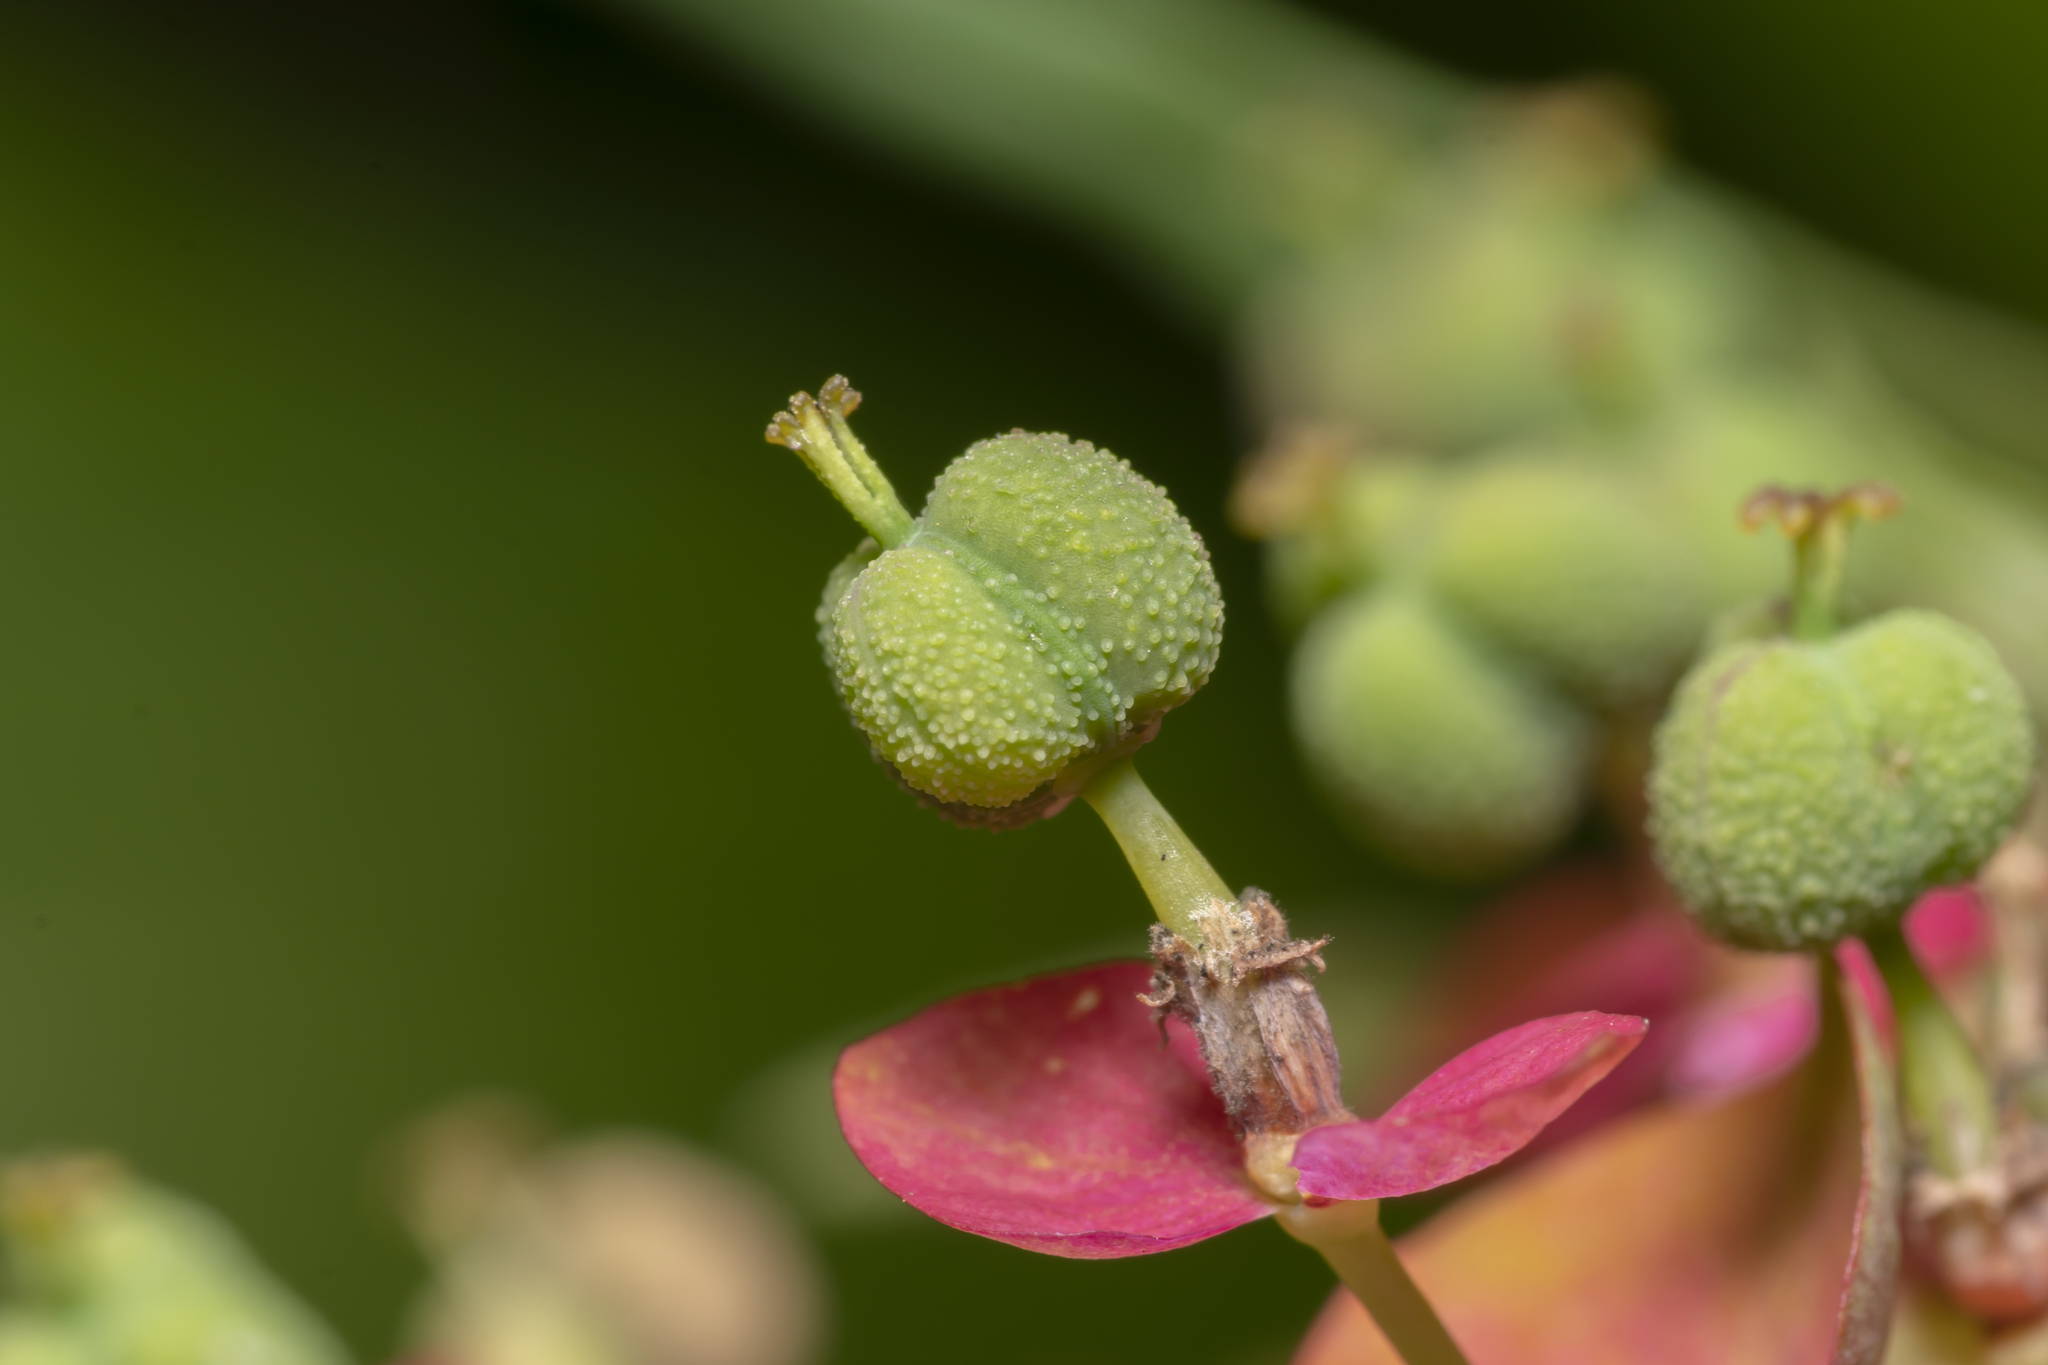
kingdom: Plantae
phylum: Tracheophyta
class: Magnoliopsida
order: Malpighiales
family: Euphorbiaceae
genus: Euphorbia
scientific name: Euphorbia cyparissias
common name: Cypress spurge
